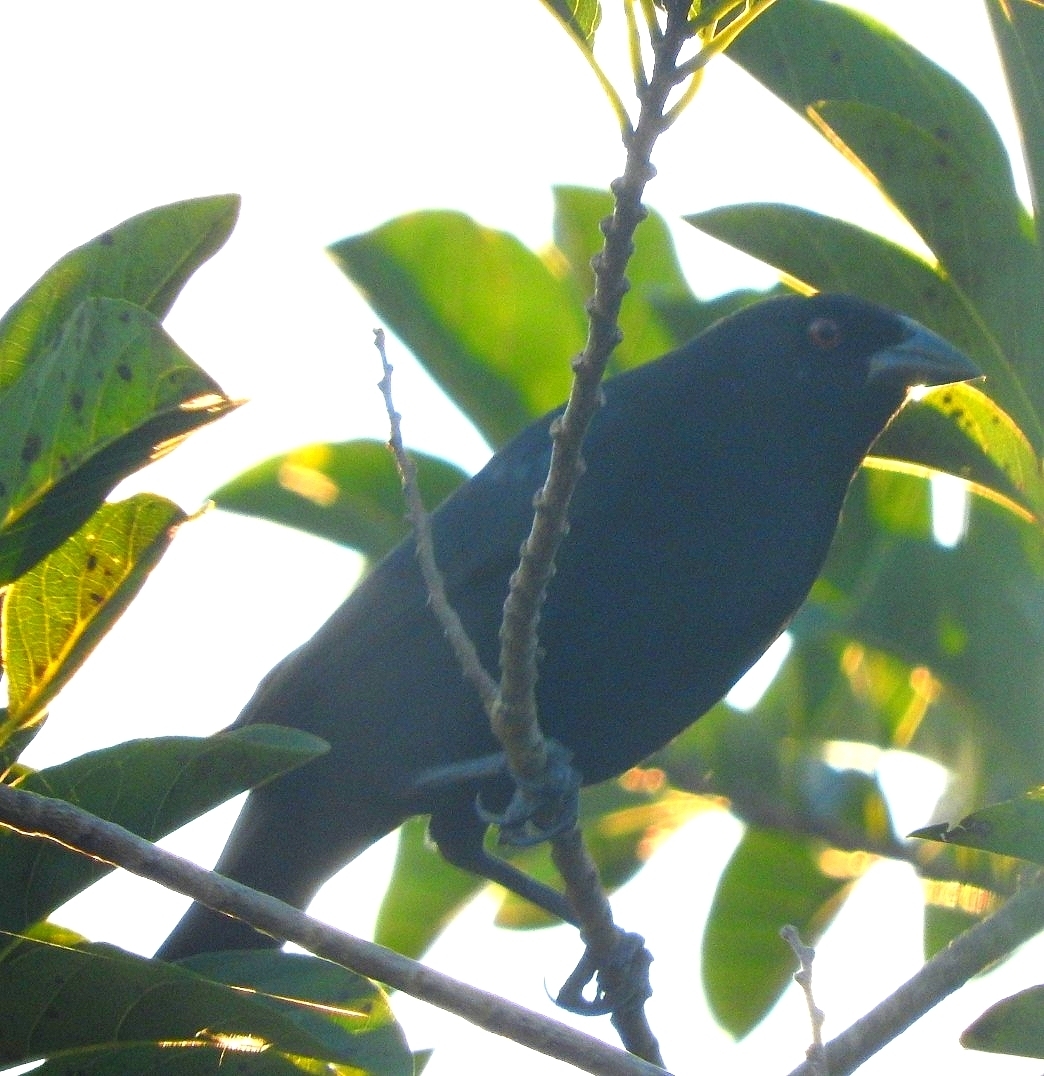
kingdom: Animalia
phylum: Chordata
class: Aves
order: Passeriformes
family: Icteridae
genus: Molothrus
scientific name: Molothrus aeneus
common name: Bronzed cowbird
